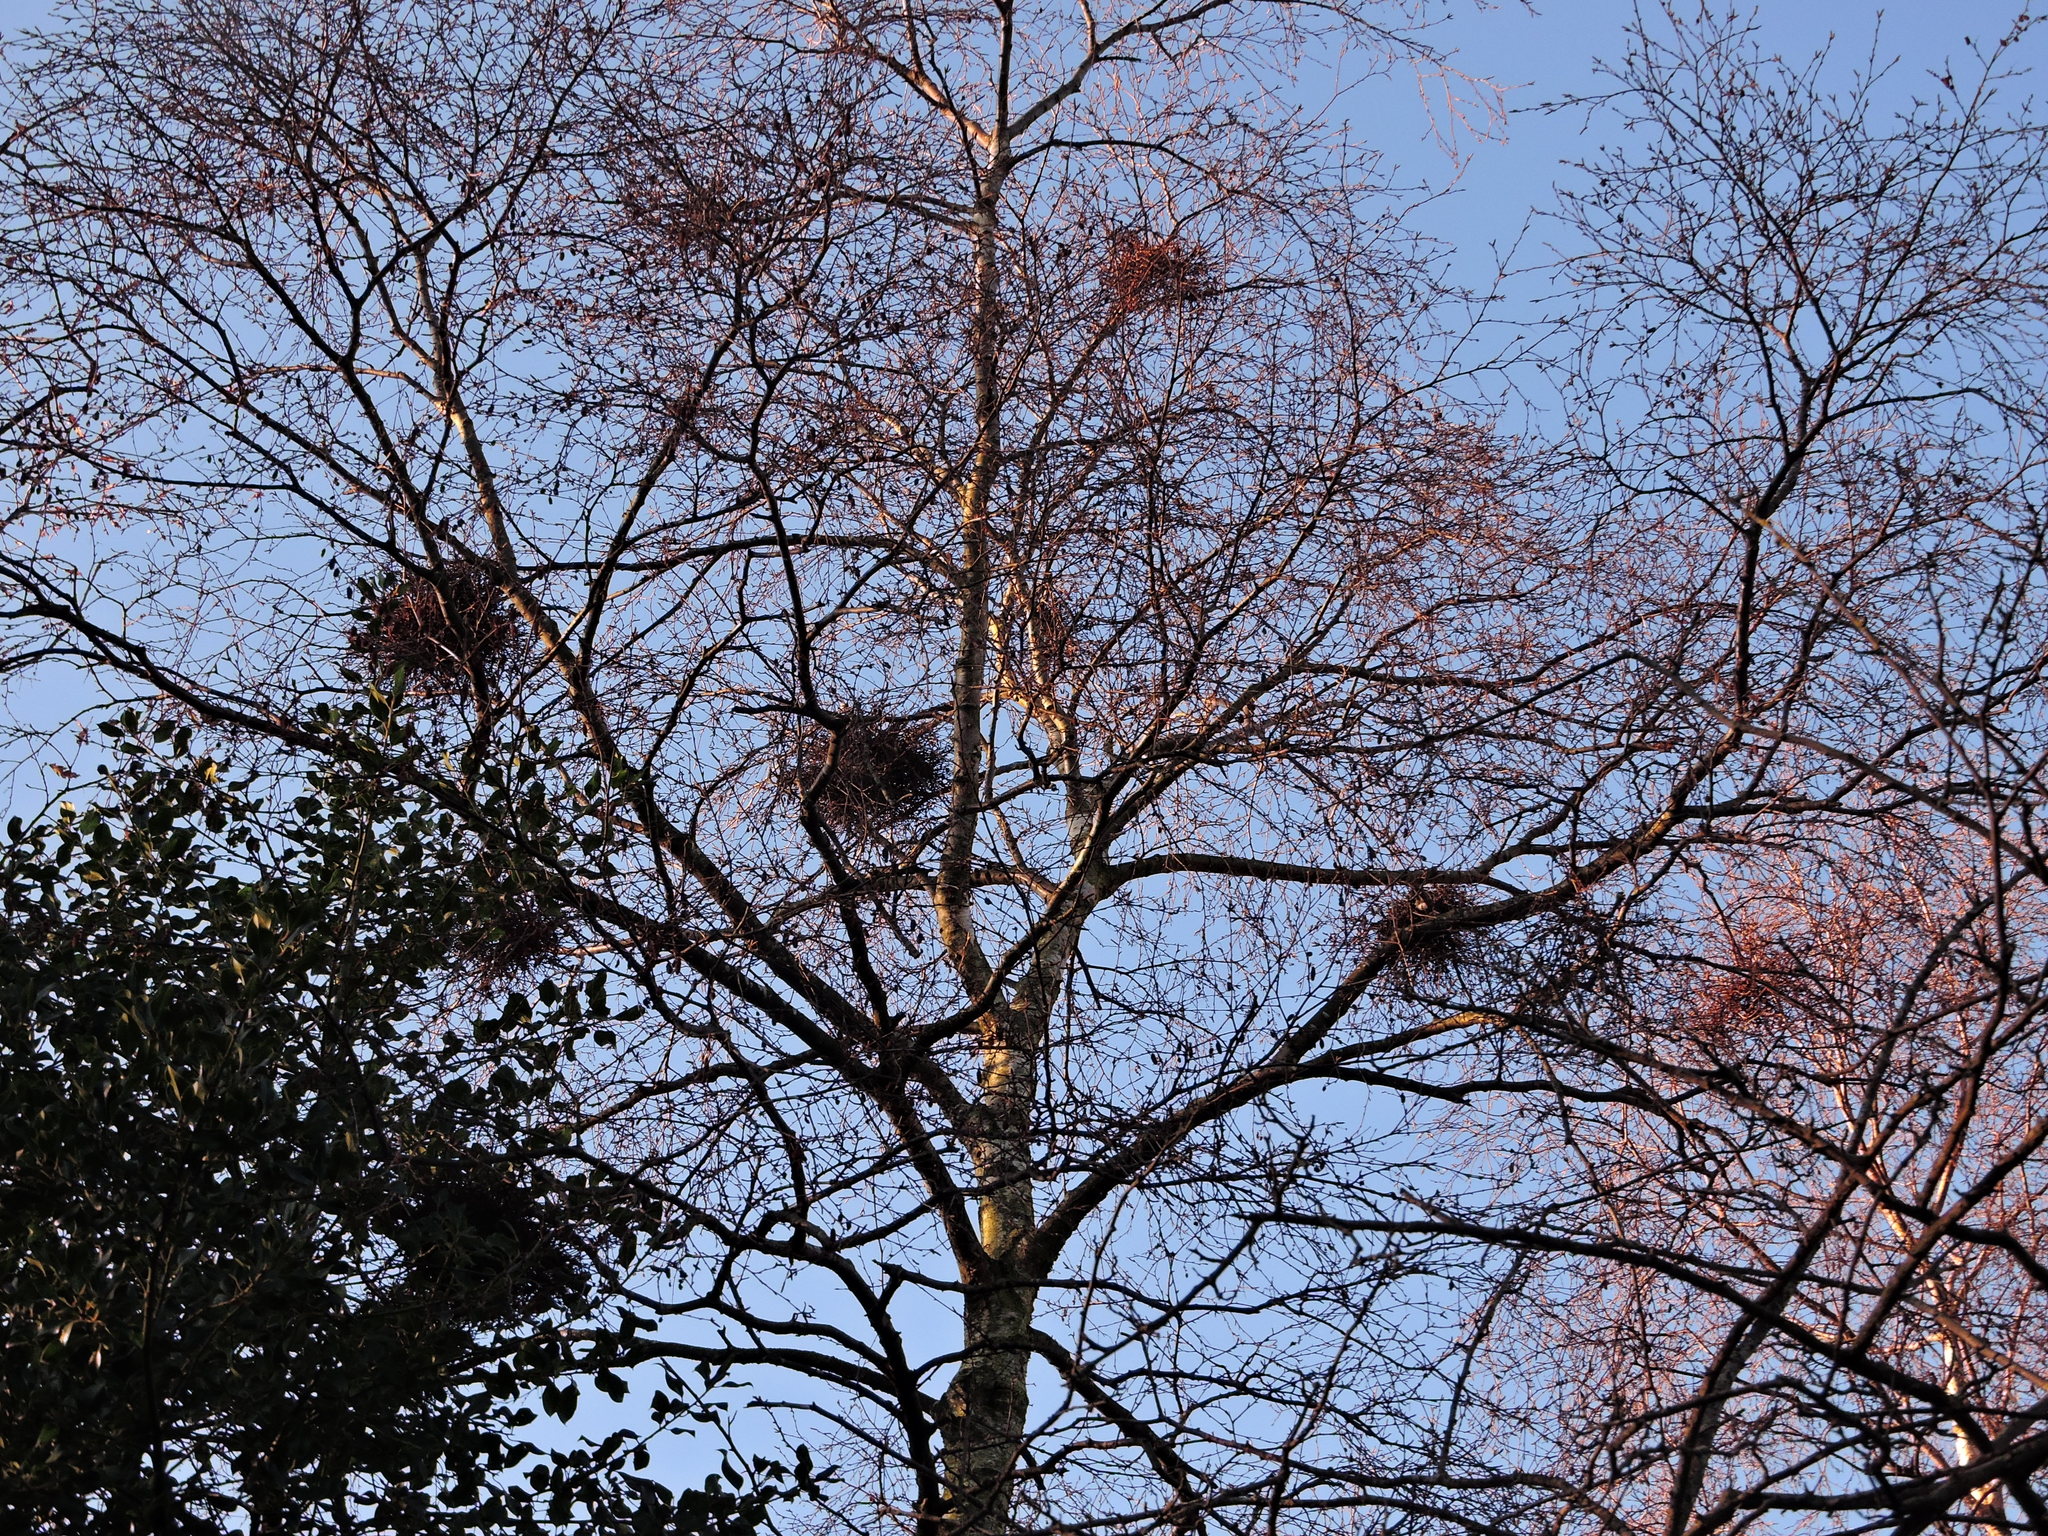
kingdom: Fungi
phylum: Ascomycota
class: Taphrinomycetes
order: Taphrinales
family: Taphrinaceae
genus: Taphrina
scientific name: Taphrina betulina
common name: Birch besom
